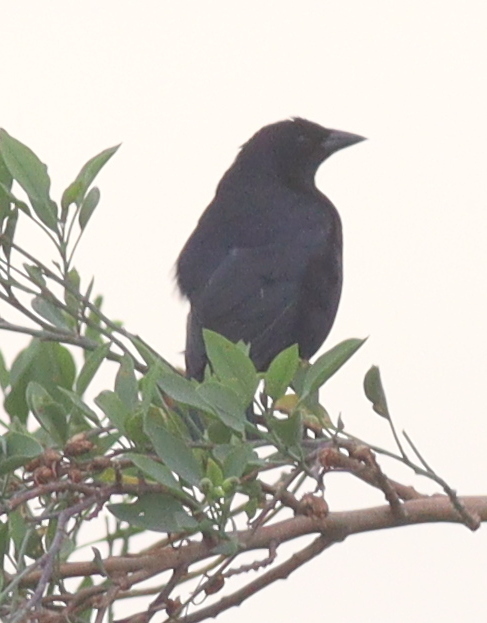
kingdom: Animalia
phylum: Chordata
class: Aves
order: Passeriformes
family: Icteridae
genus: Molothrus
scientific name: Molothrus bonariensis
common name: Shiny cowbird
